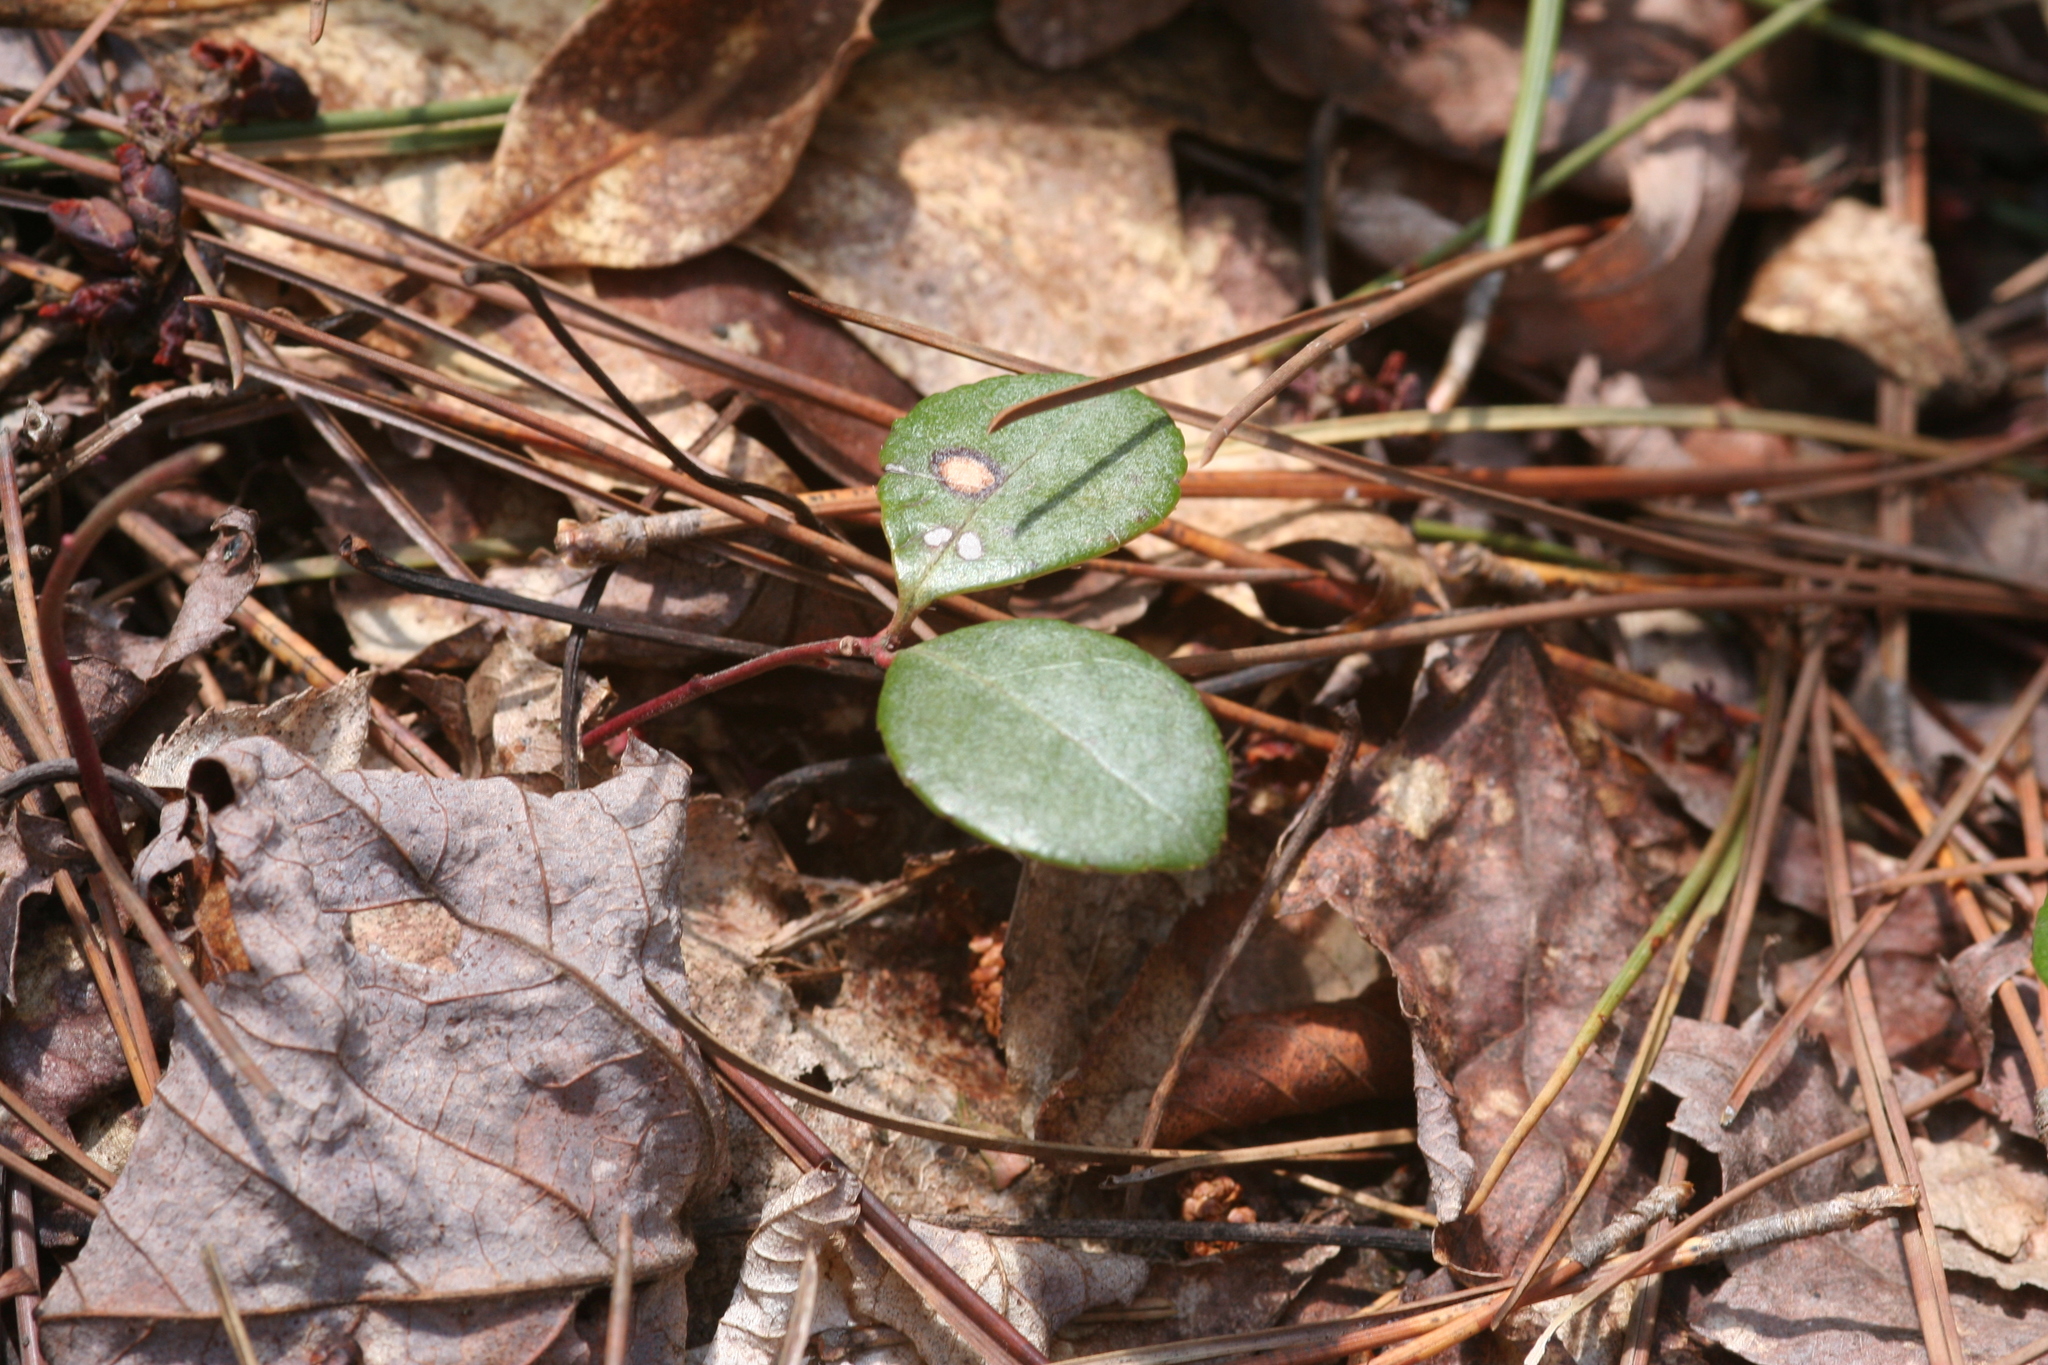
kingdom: Plantae
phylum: Tracheophyta
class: Magnoliopsida
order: Ericales
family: Ericaceae
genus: Gaultheria
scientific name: Gaultheria procumbens
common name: Checkerberry
